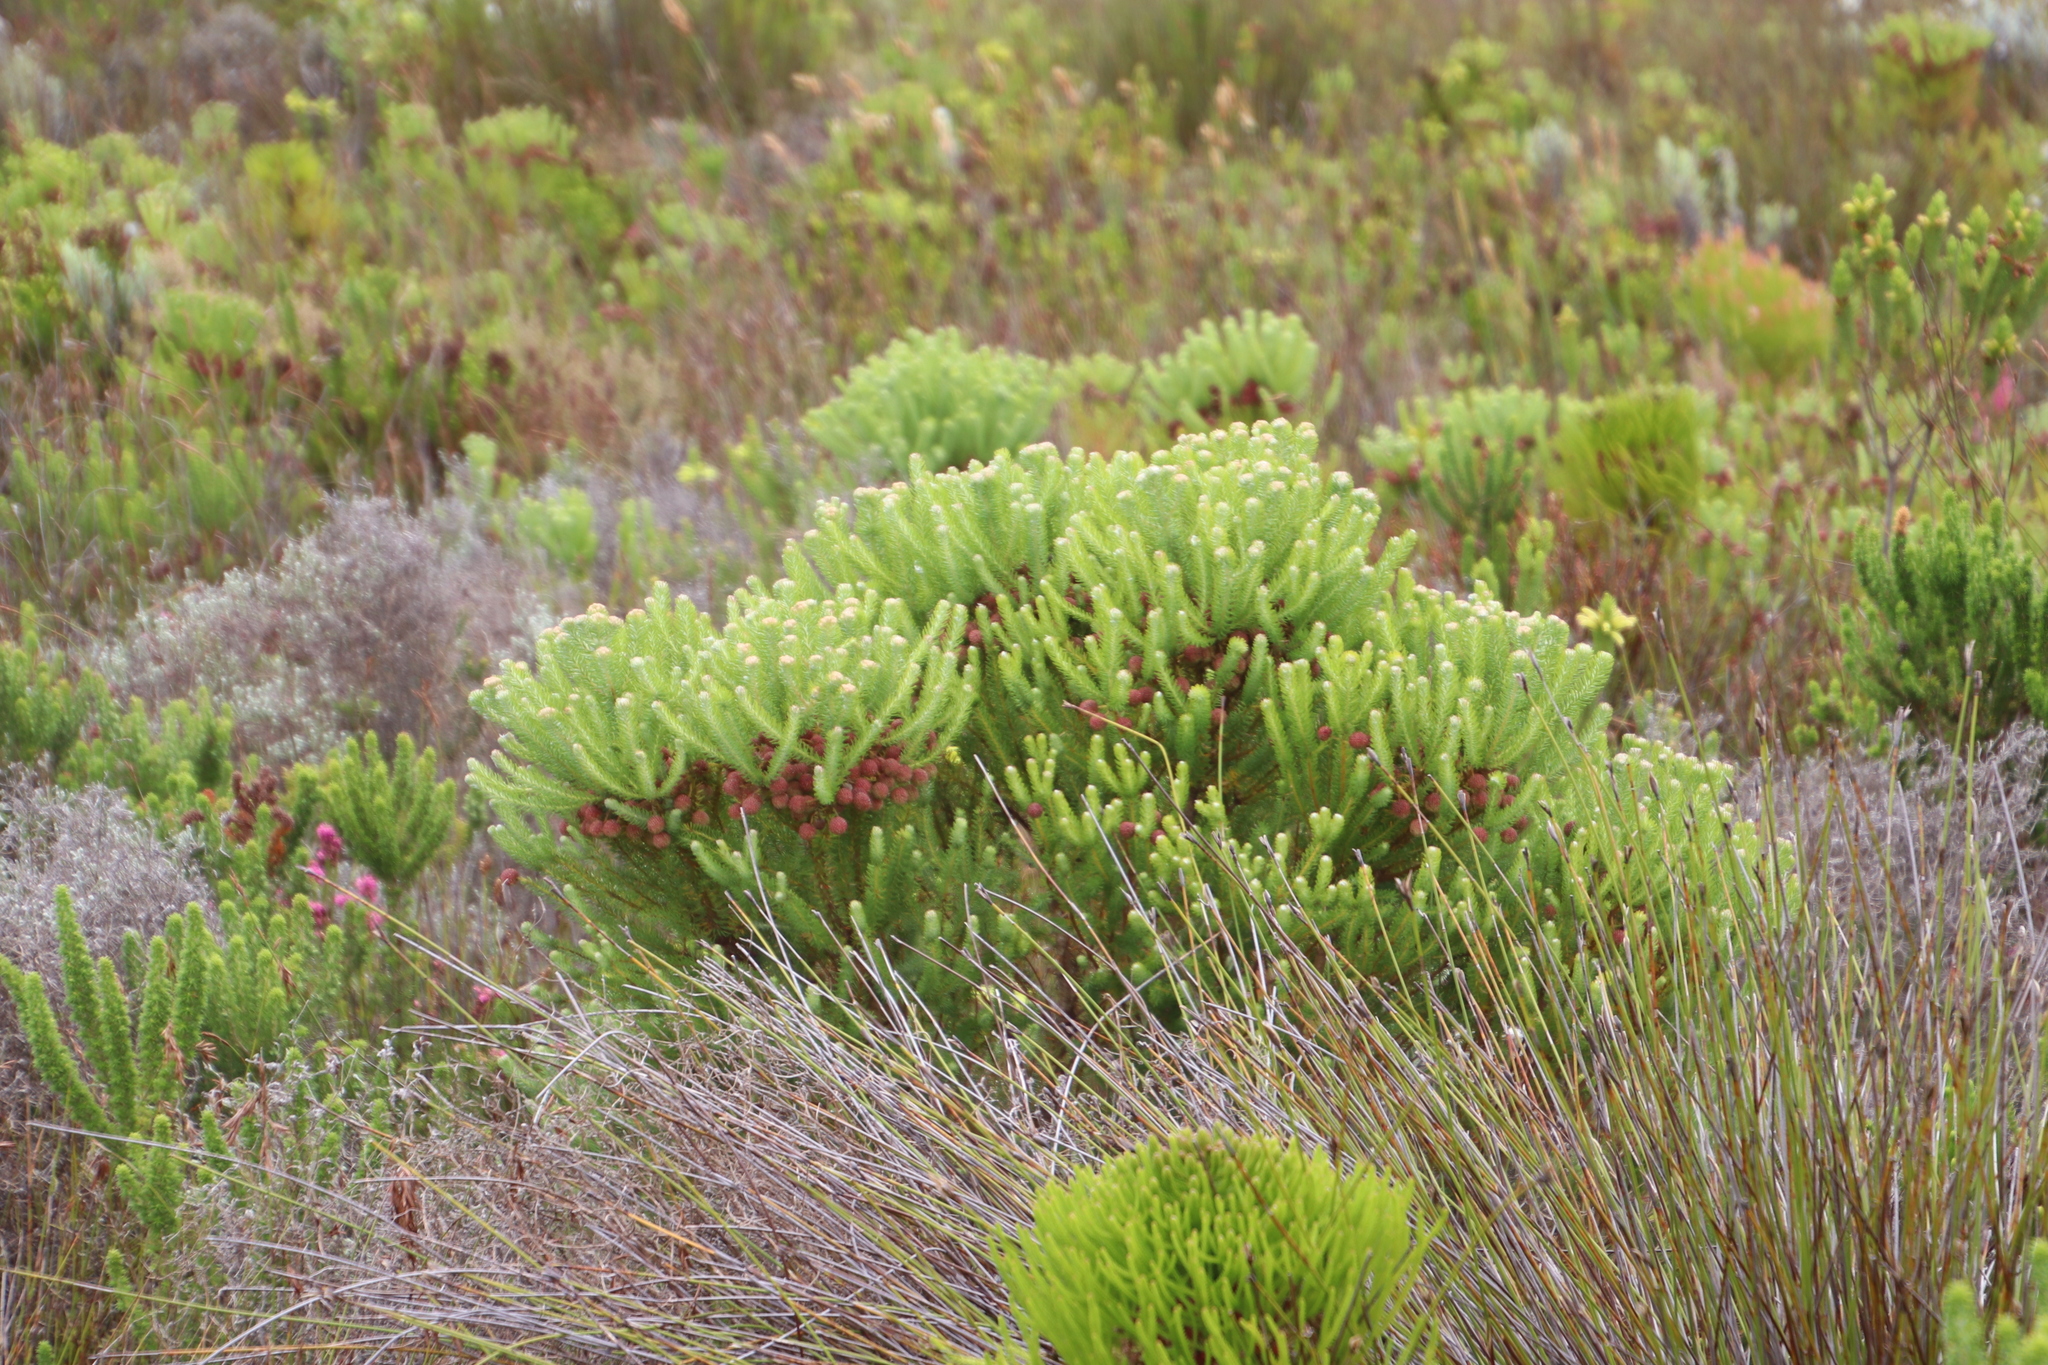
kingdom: Plantae
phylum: Tracheophyta
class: Magnoliopsida
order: Bruniales
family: Bruniaceae
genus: Berzelia
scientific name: Berzelia squarrosa
